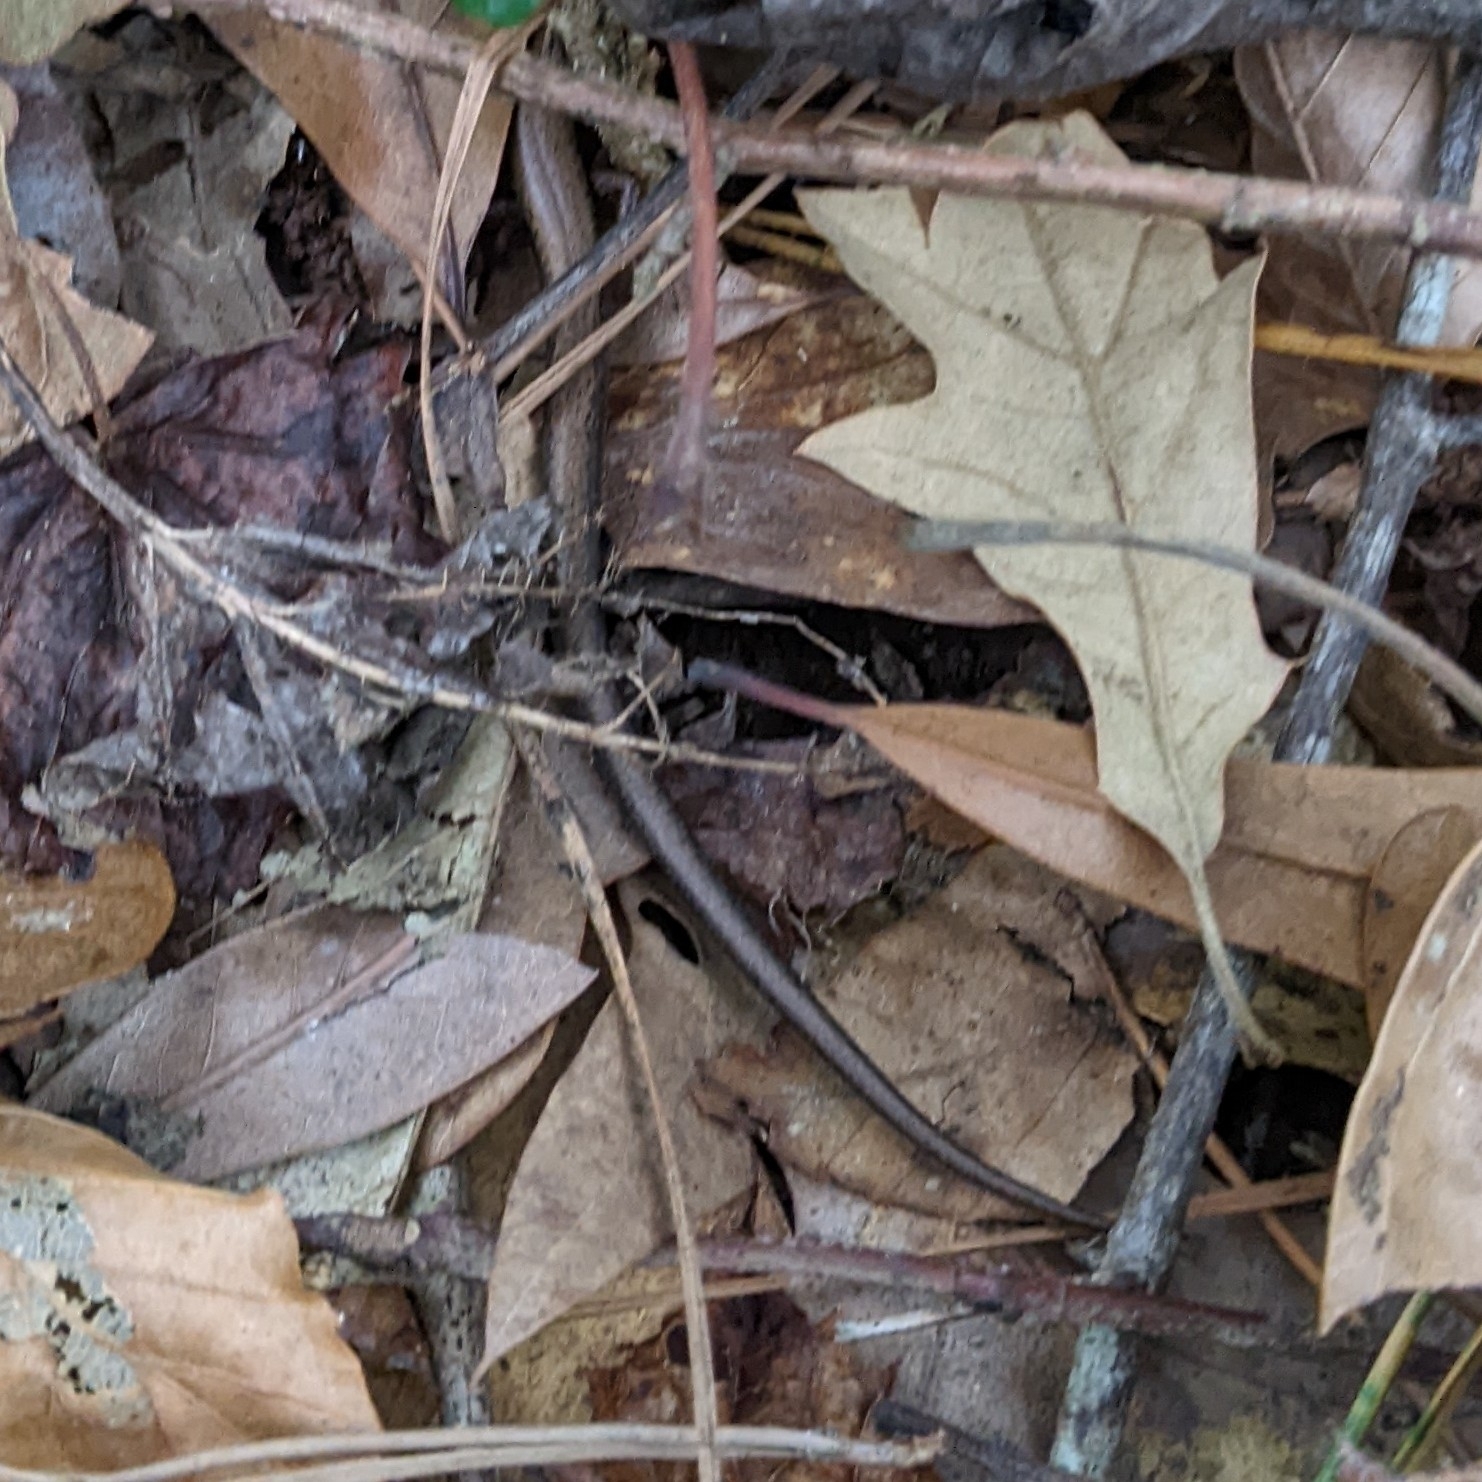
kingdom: Animalia
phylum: Chordata
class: Squamata
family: Scincidae
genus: Scincella
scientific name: Scincella lateralis
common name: Ground skink
